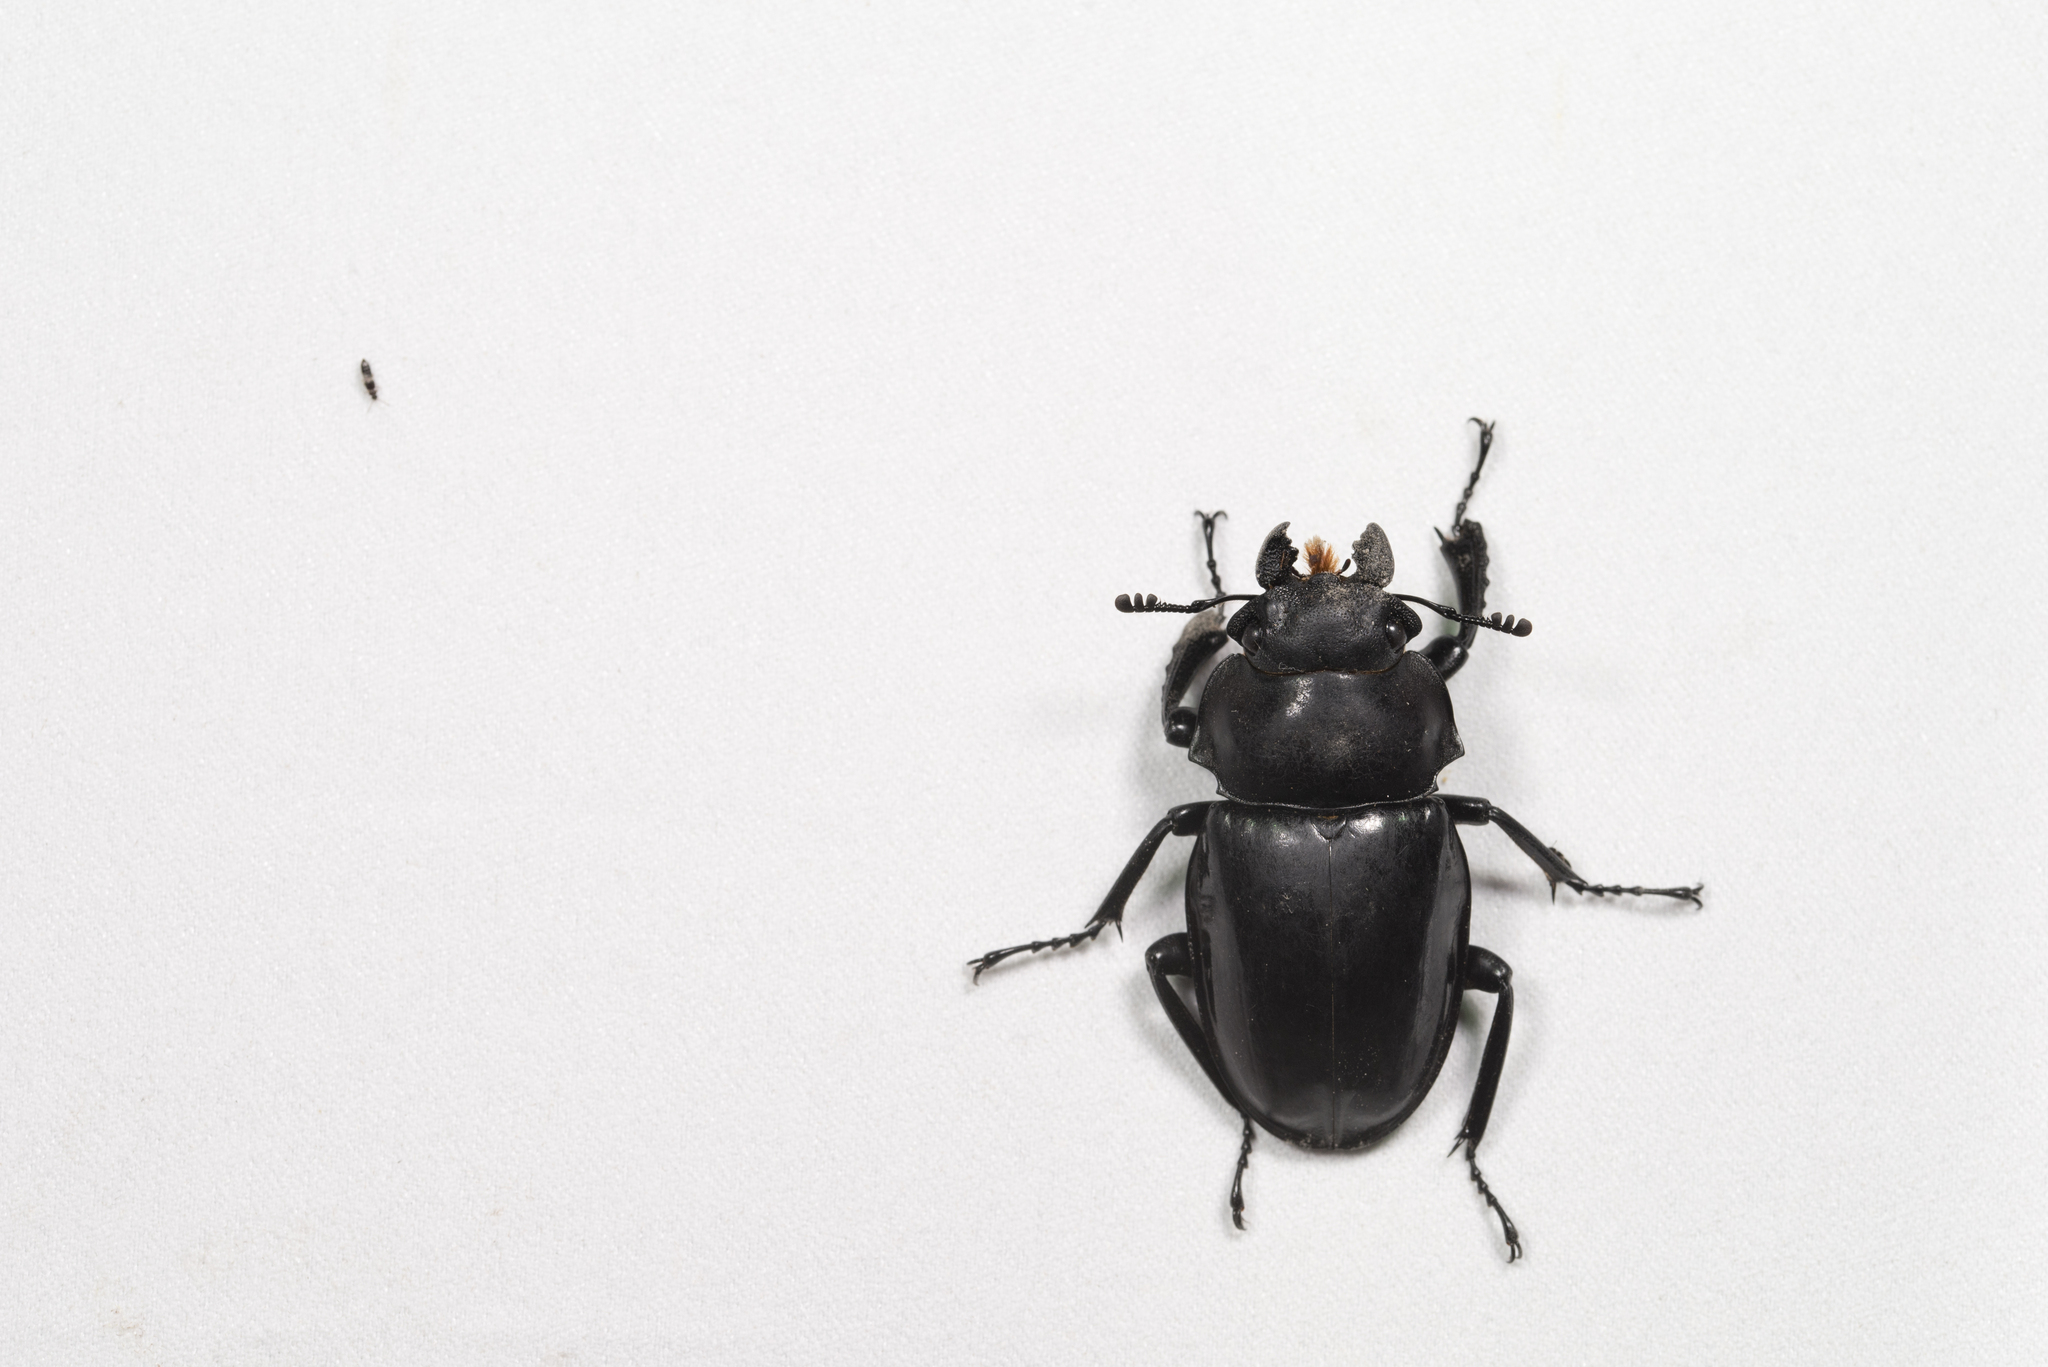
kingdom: Animalia
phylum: Arthropoda
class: Insecta
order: Coleoptera
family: Lucanidae
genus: Odontolabis
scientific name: Odontolabis siva
